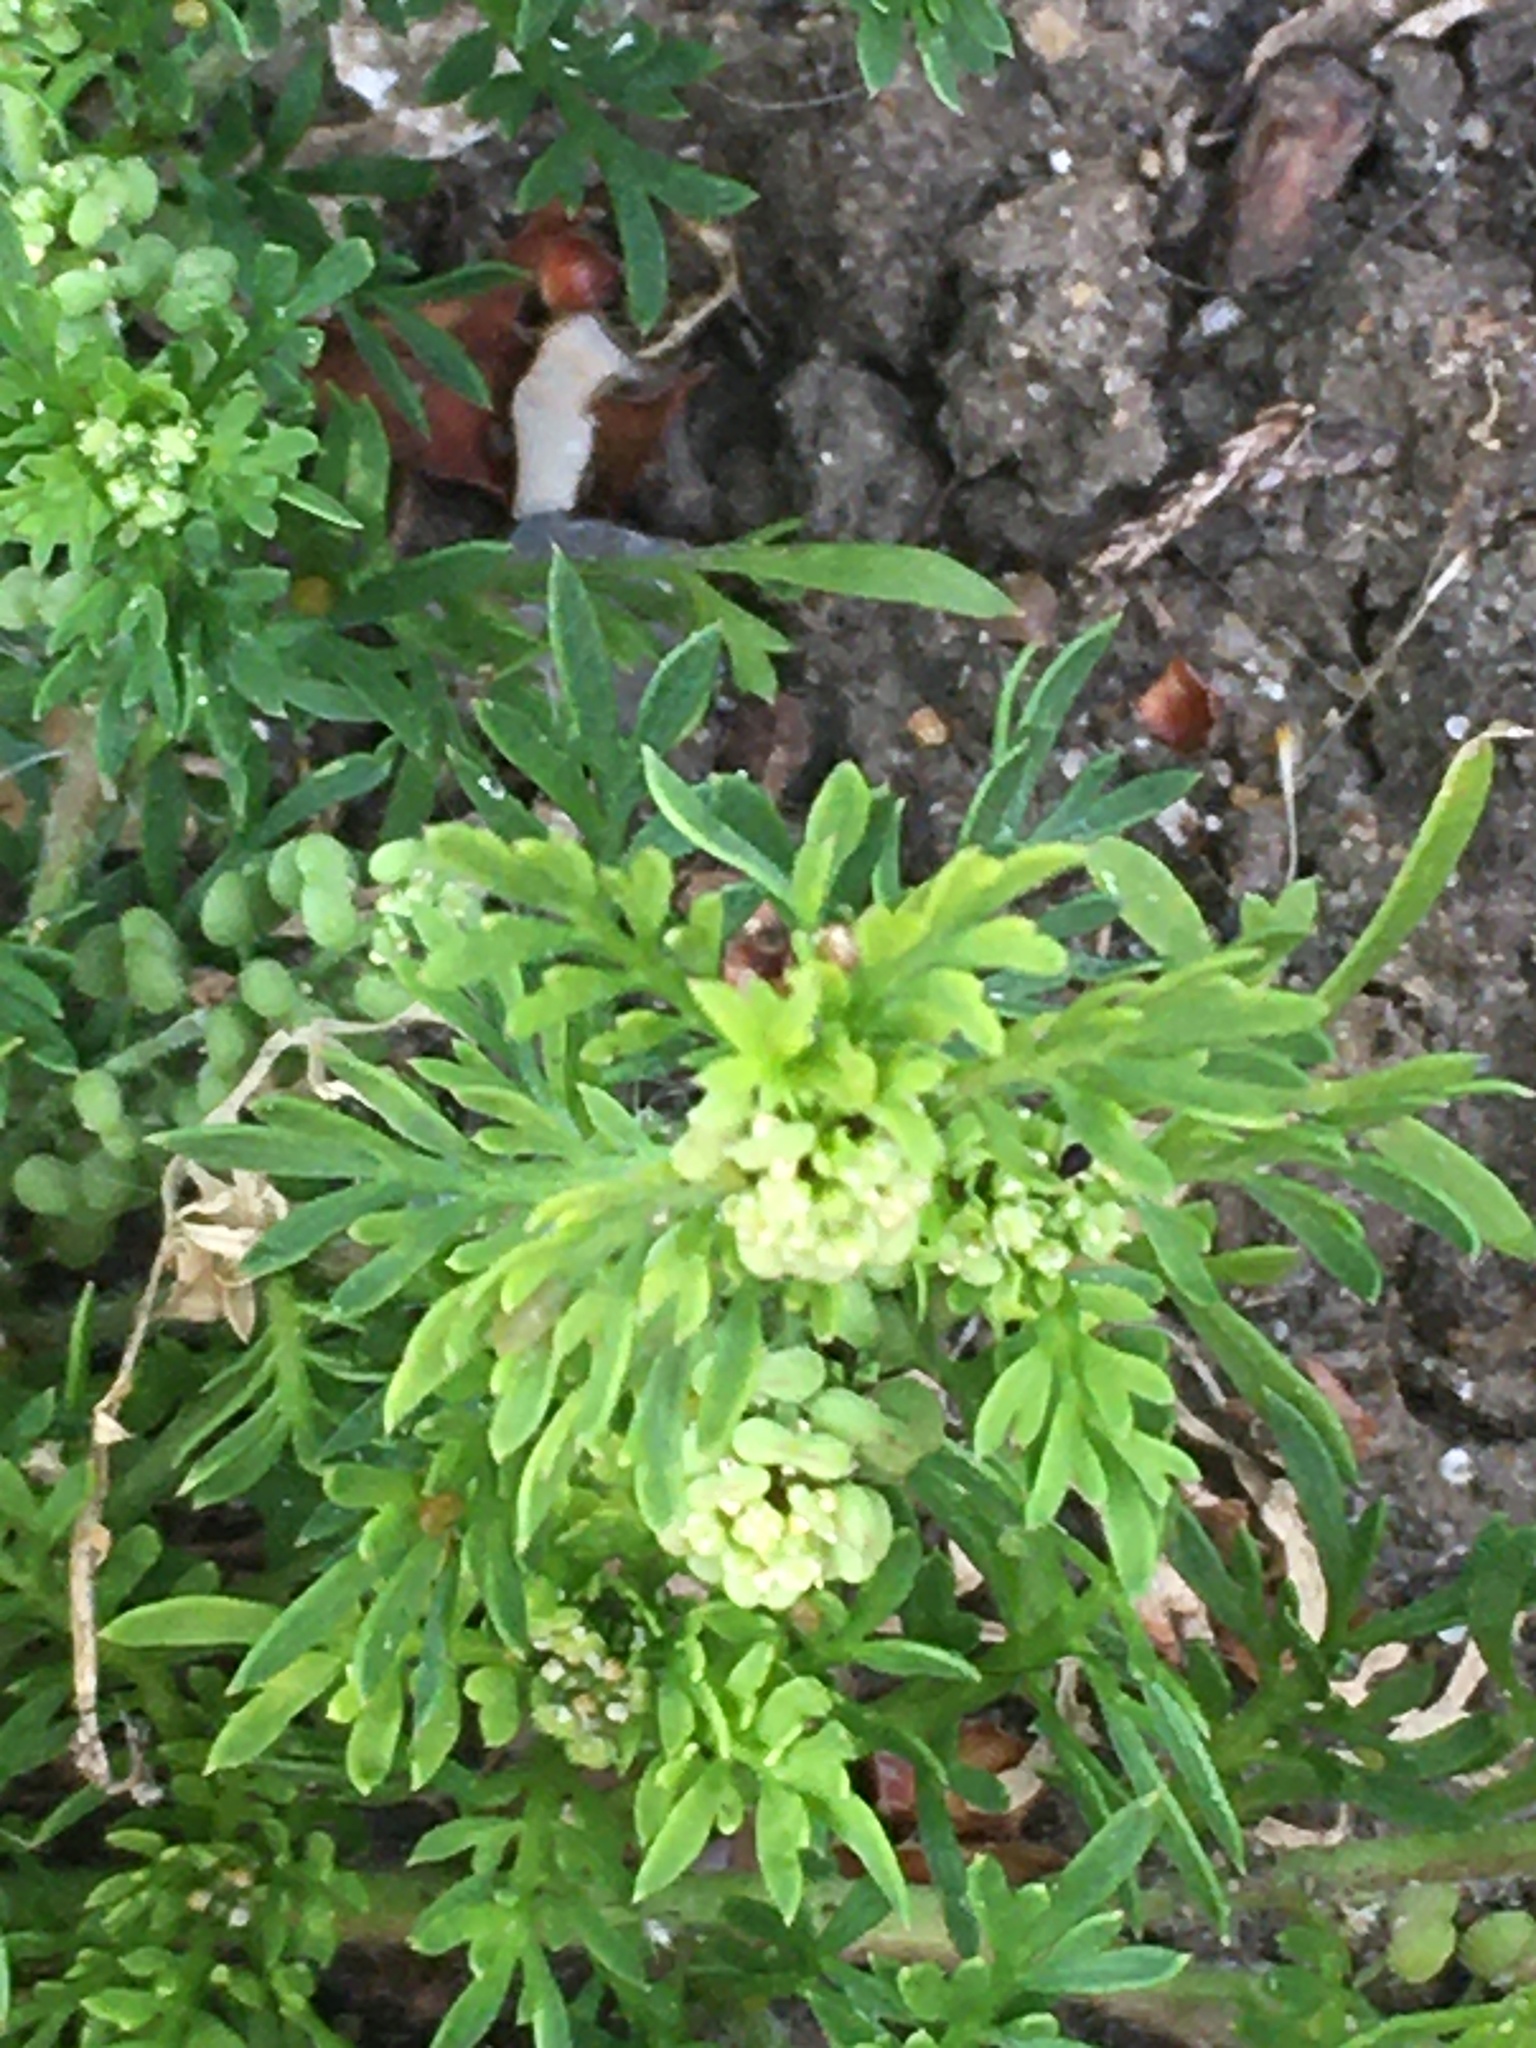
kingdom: Plantae
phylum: Tracheophyta
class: Magnoliopsida
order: Brassicales
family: Brassicaceae
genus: Lepidium
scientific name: Lepidium didymum
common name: Lesser swinecress
